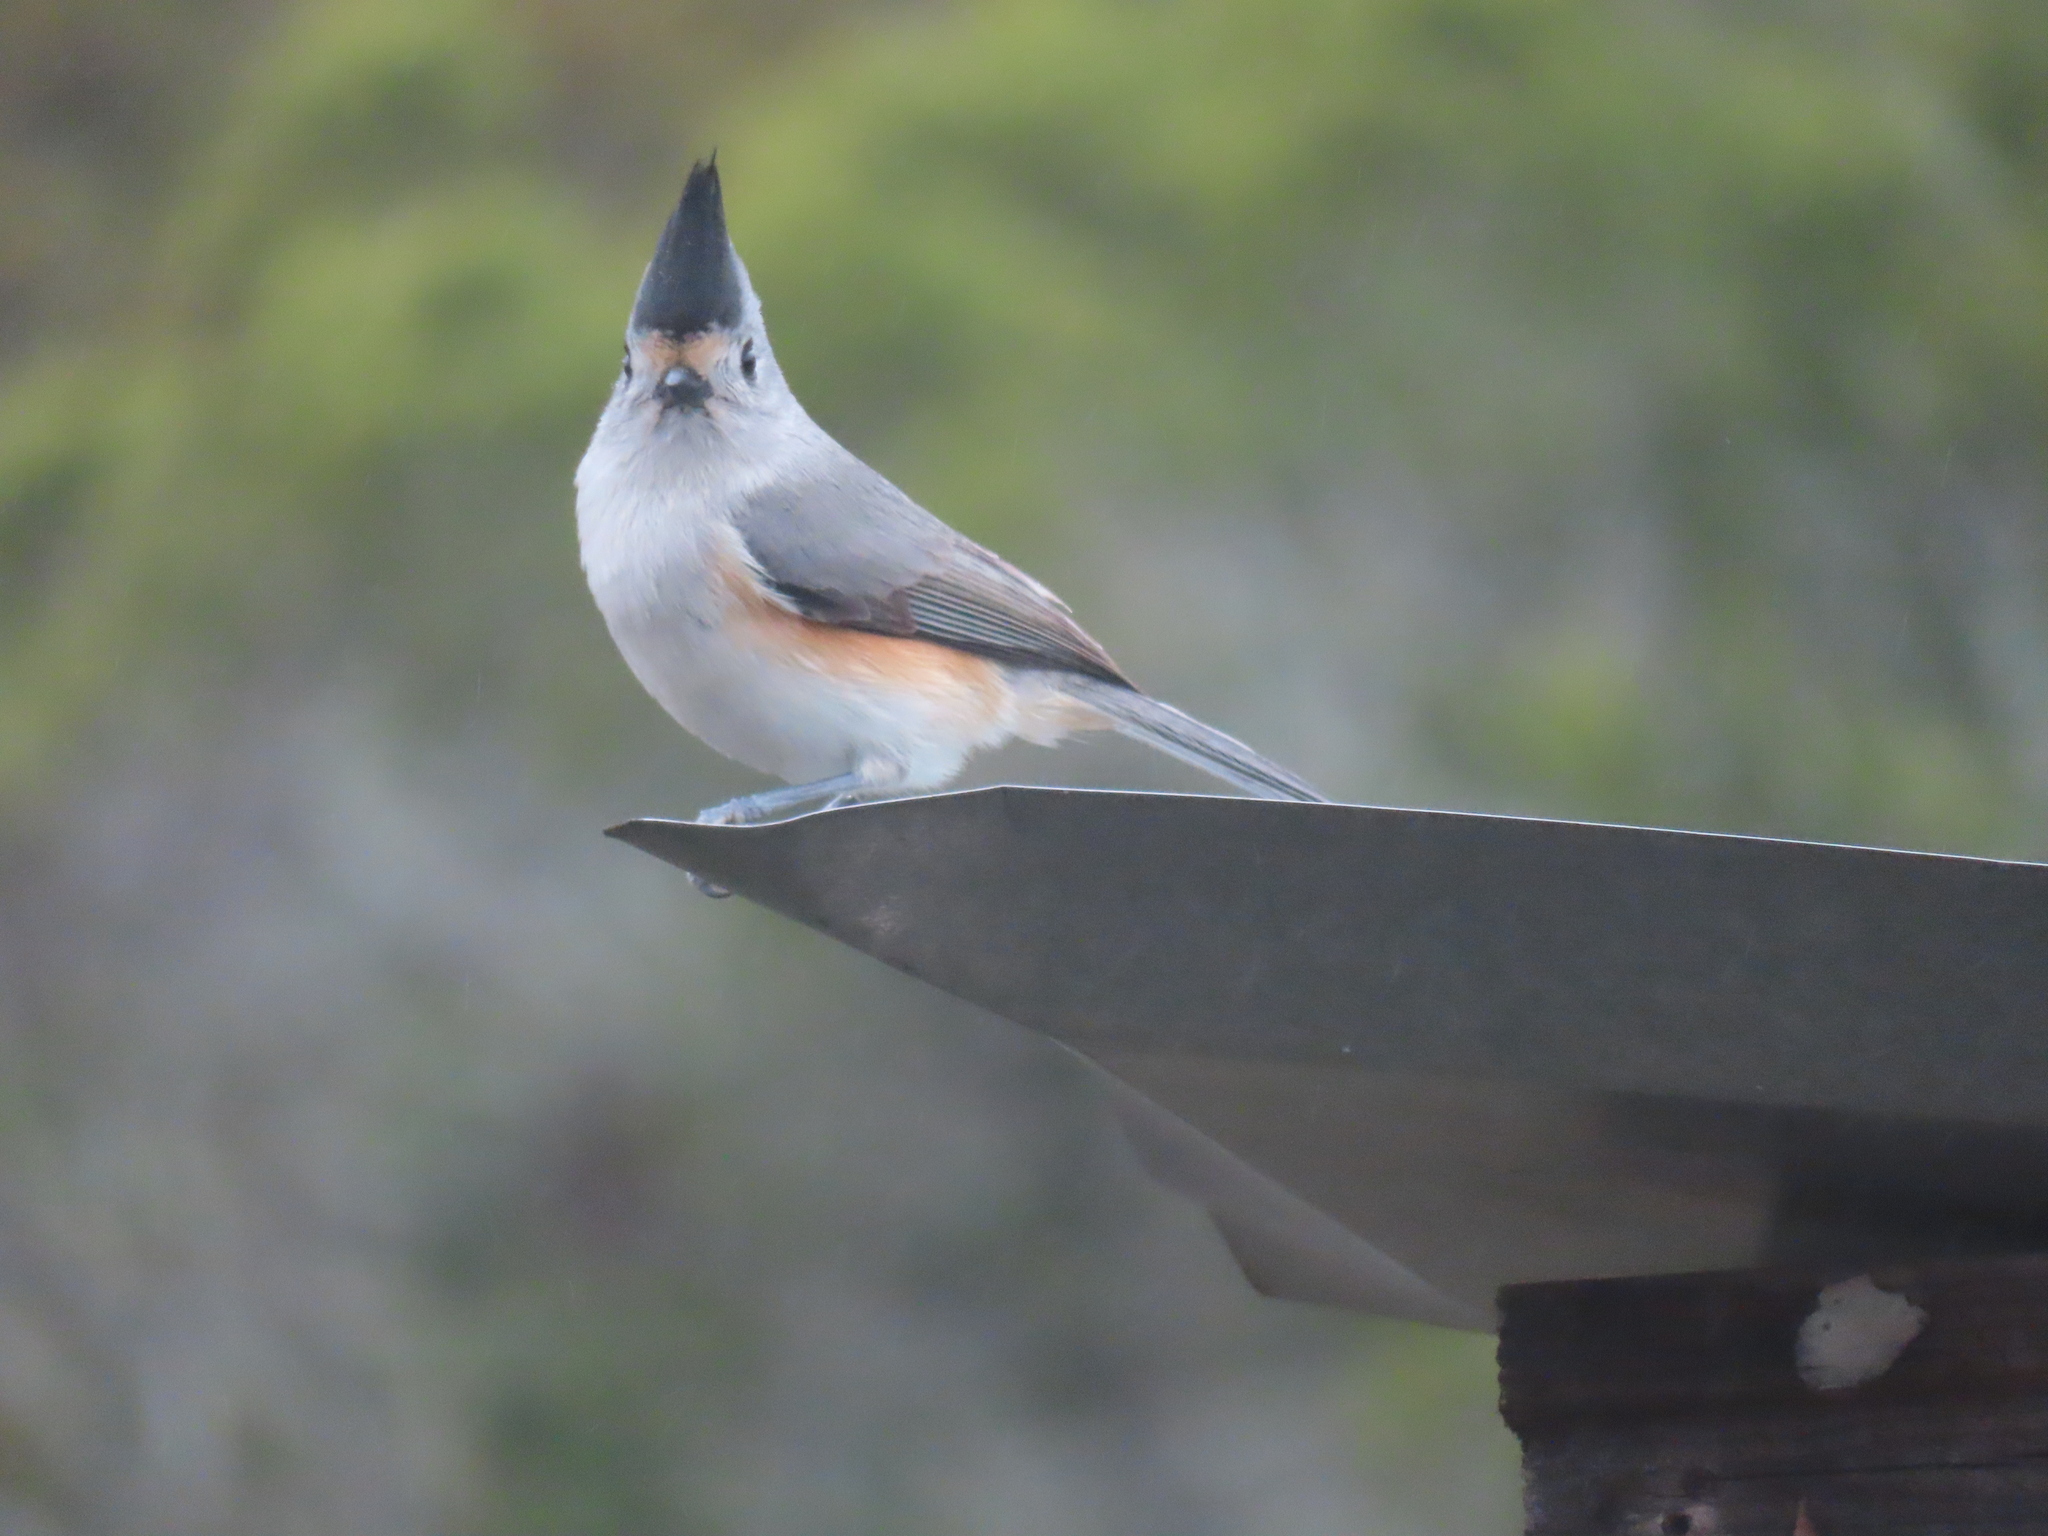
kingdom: Animalia
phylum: Chordata
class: Aves
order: Passeriformes
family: Paridae
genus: Baeolophus
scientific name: Baeolophus atricristatus
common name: Black-crested titmouse
